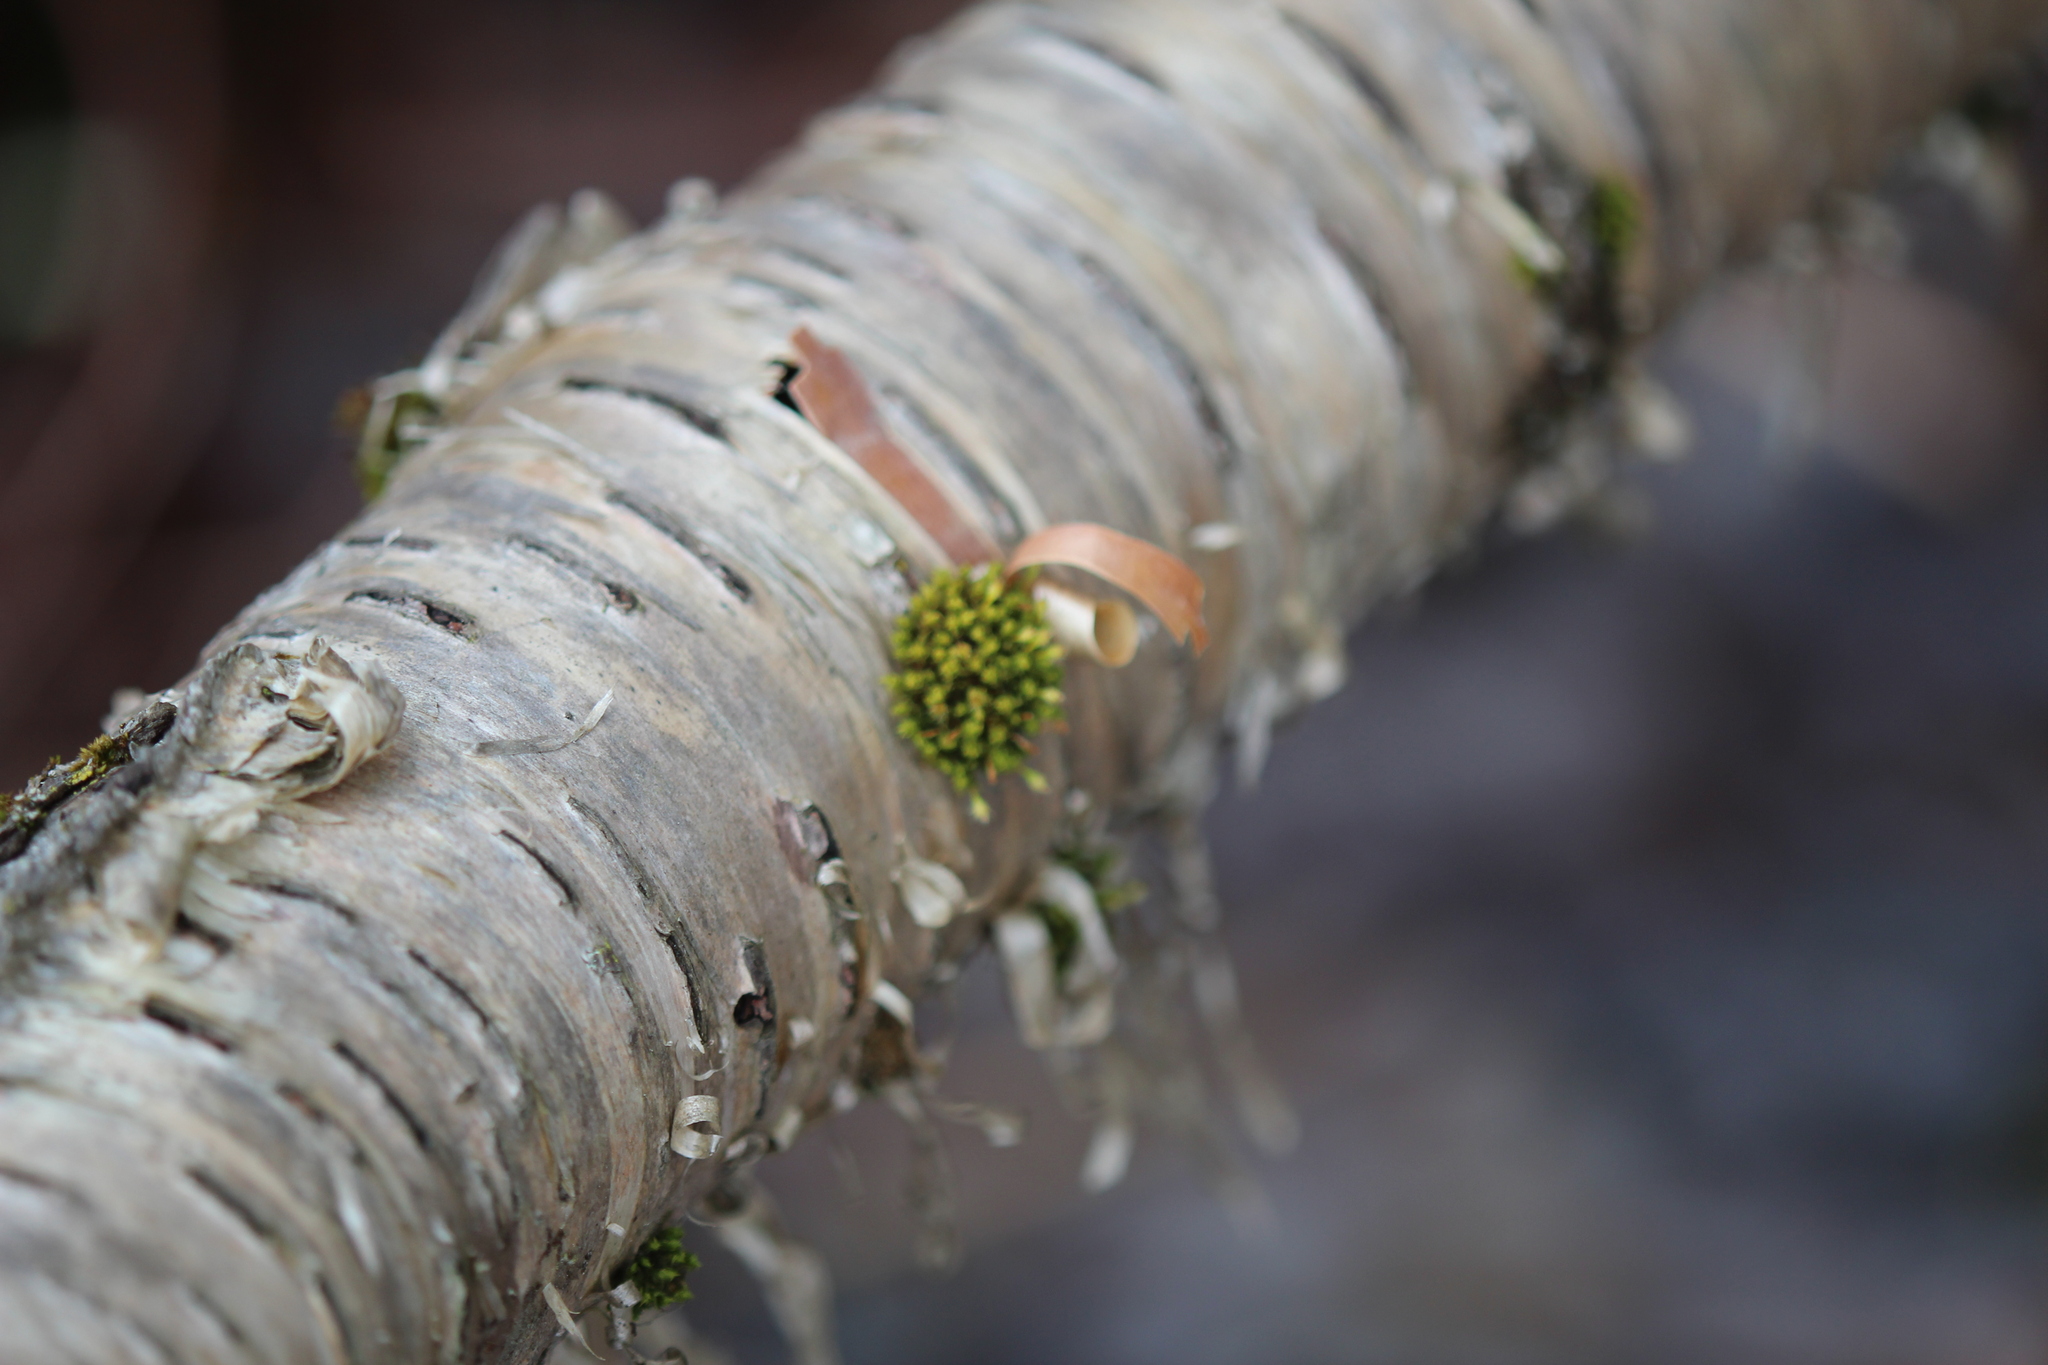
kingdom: Plantae
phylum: Tracheophyta
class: Magnoliopsida
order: Fagales
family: Betulaceae
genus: Betula
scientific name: Betula alleghaniensis
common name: Yellow birch
